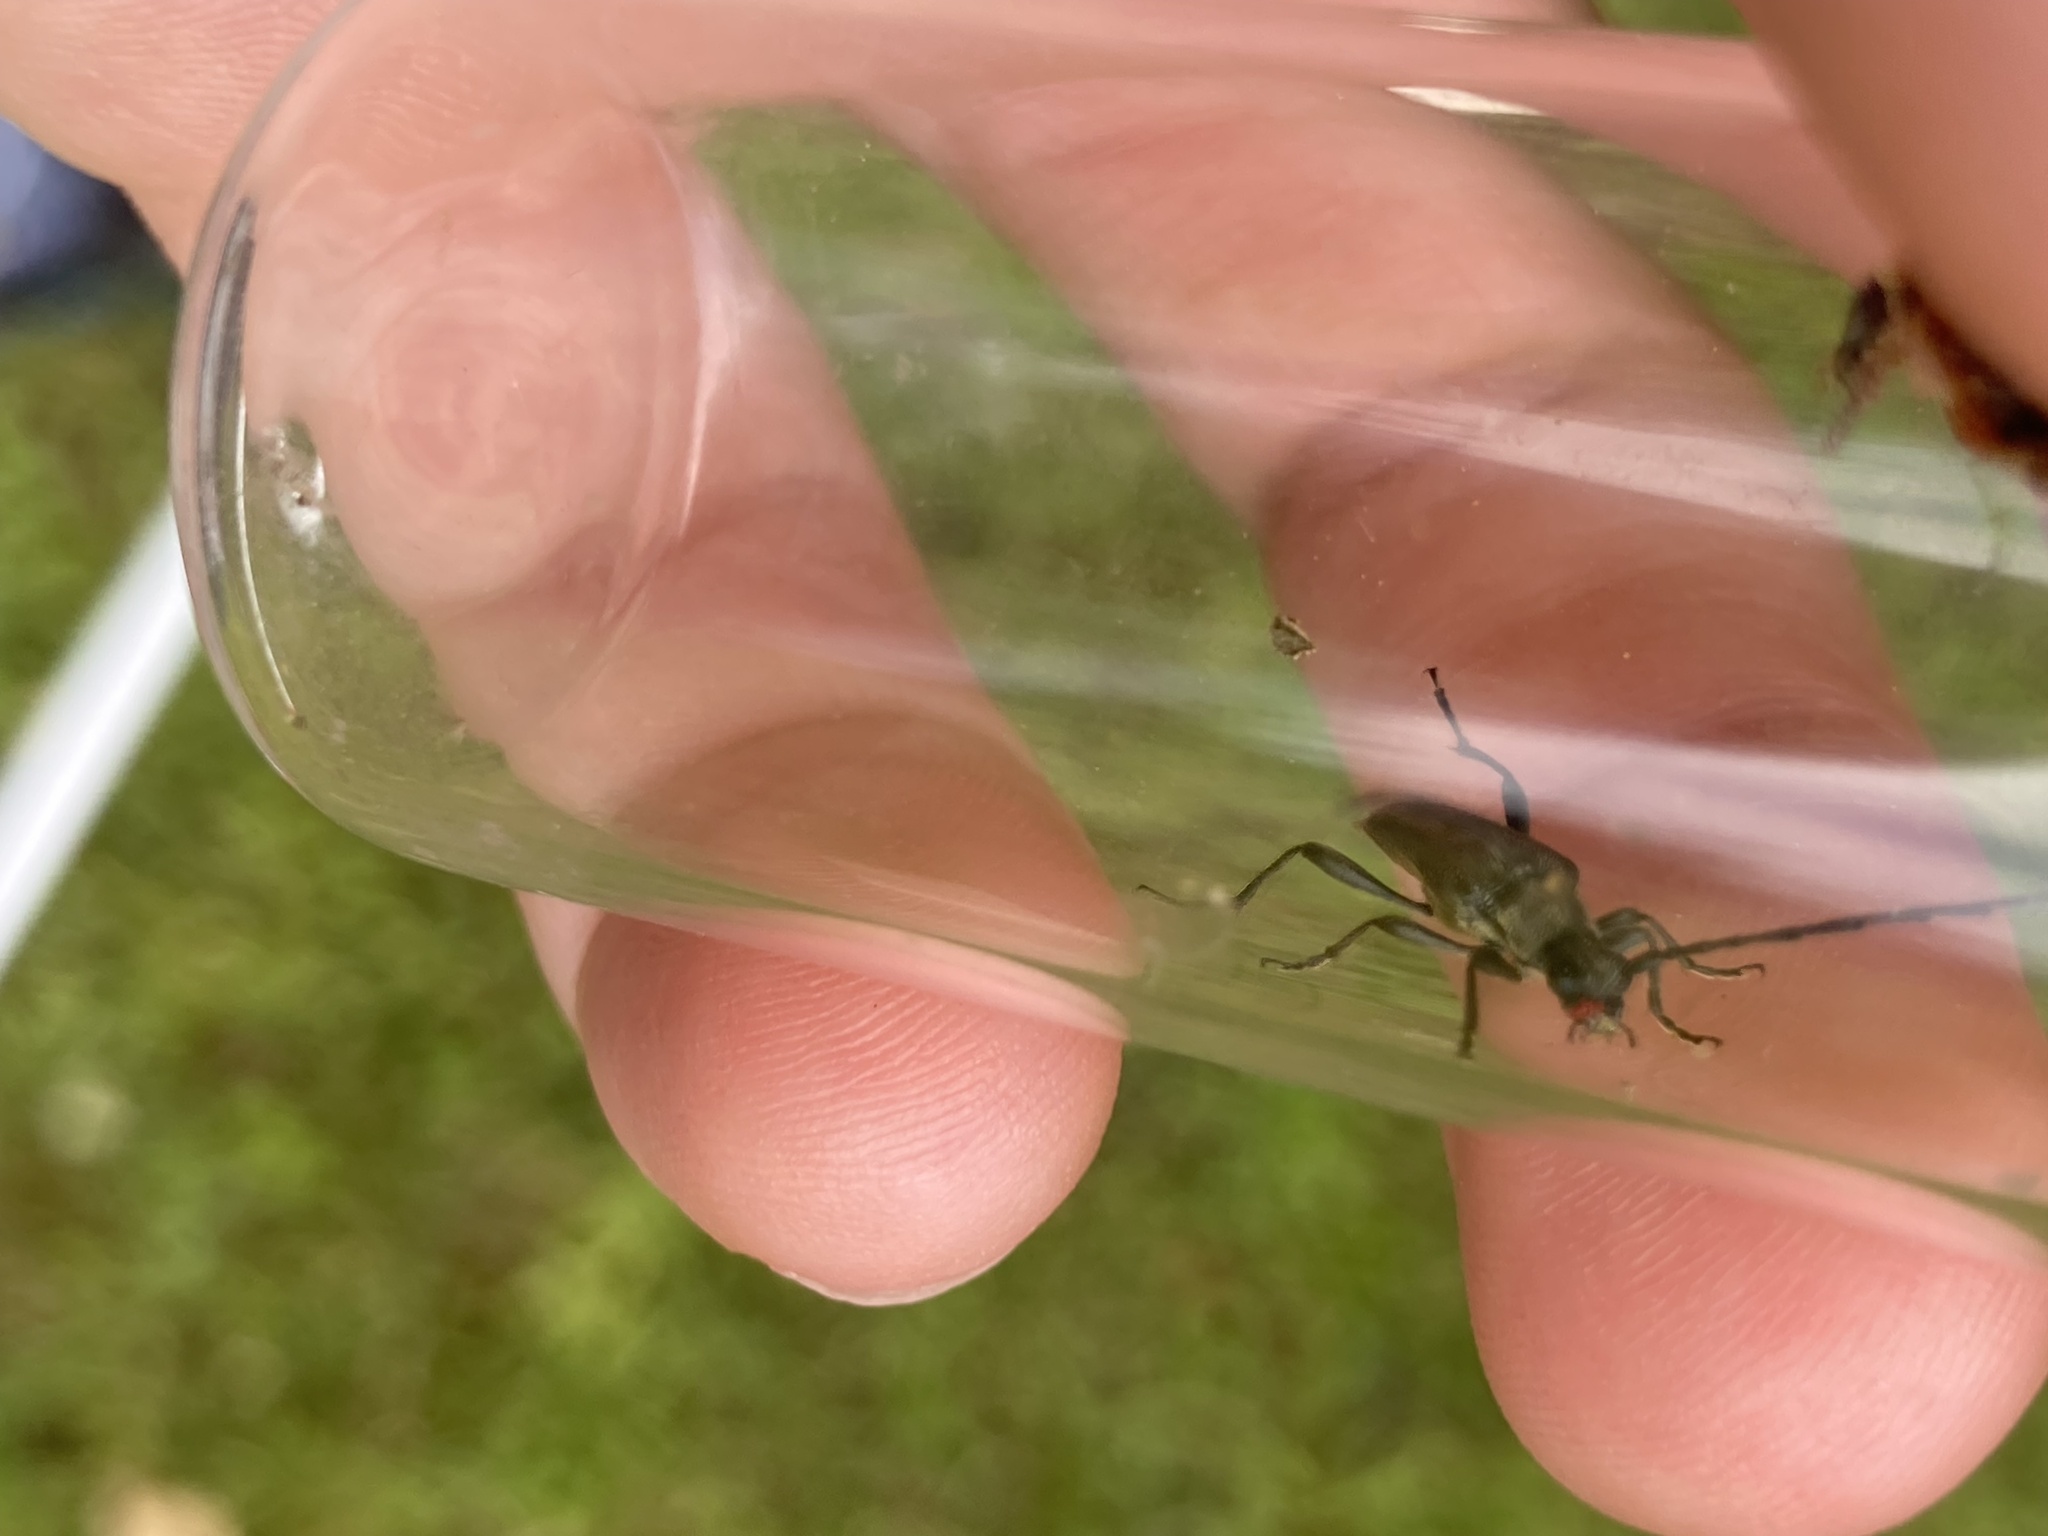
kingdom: Animalia
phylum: Arthropoda
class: Insecta
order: Coleoptera
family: Cerambycidae
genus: Trachysida
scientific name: Trachysida mutabilis
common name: Changeable flower longhorn
